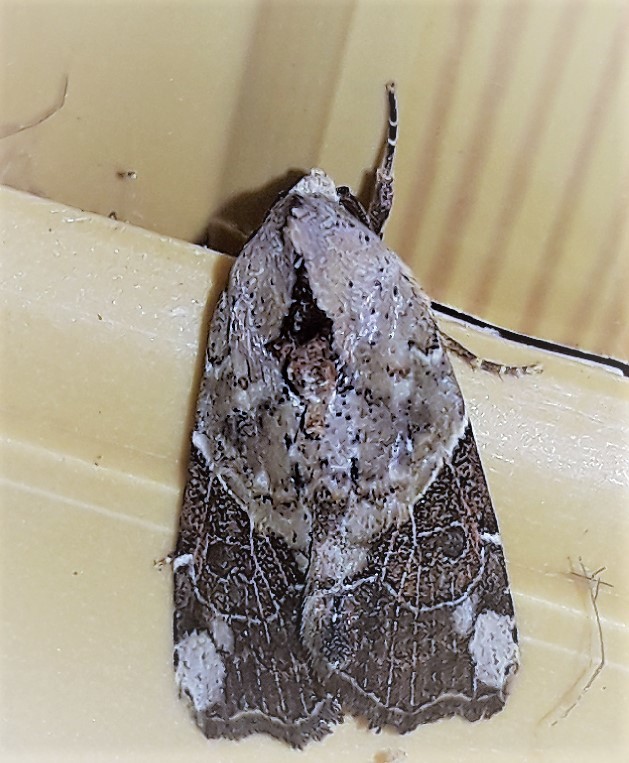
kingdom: Animalia
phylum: Arthropoda
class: Insecta
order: Lepidoptera
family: Noctuidae
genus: Gonodes
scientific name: Gonodes liquida
